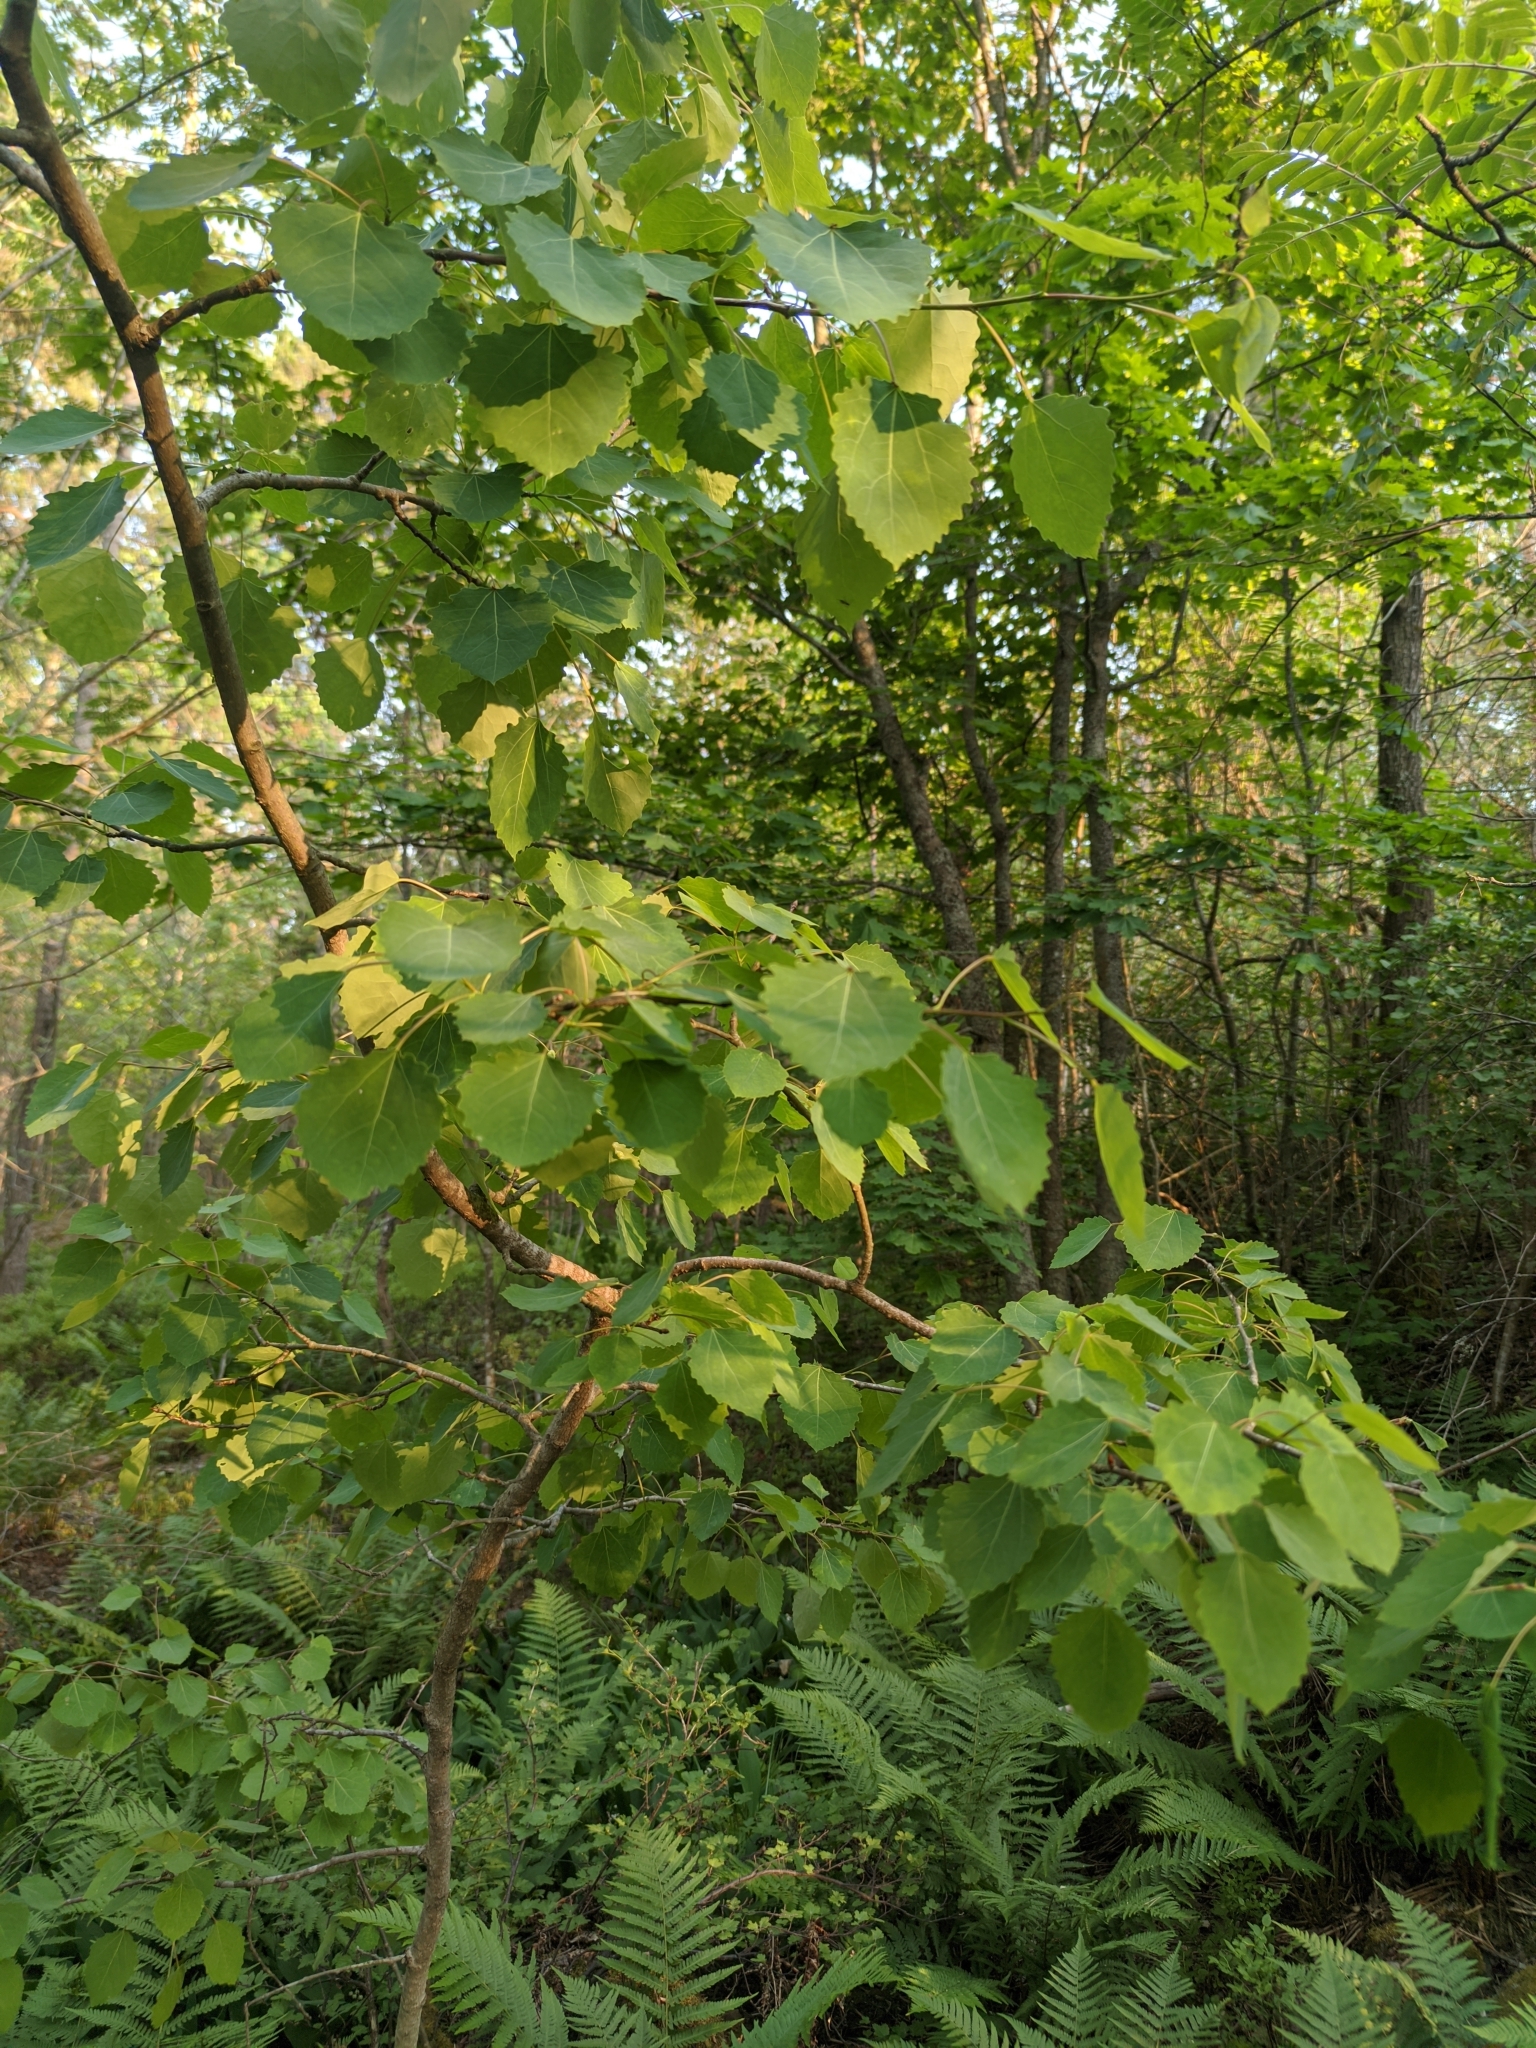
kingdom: Plantae
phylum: Tracheophyta
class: Magnoliopsida
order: Malpighiales
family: Salicaceae
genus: Populus
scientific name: Populus tremula
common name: European aspen
